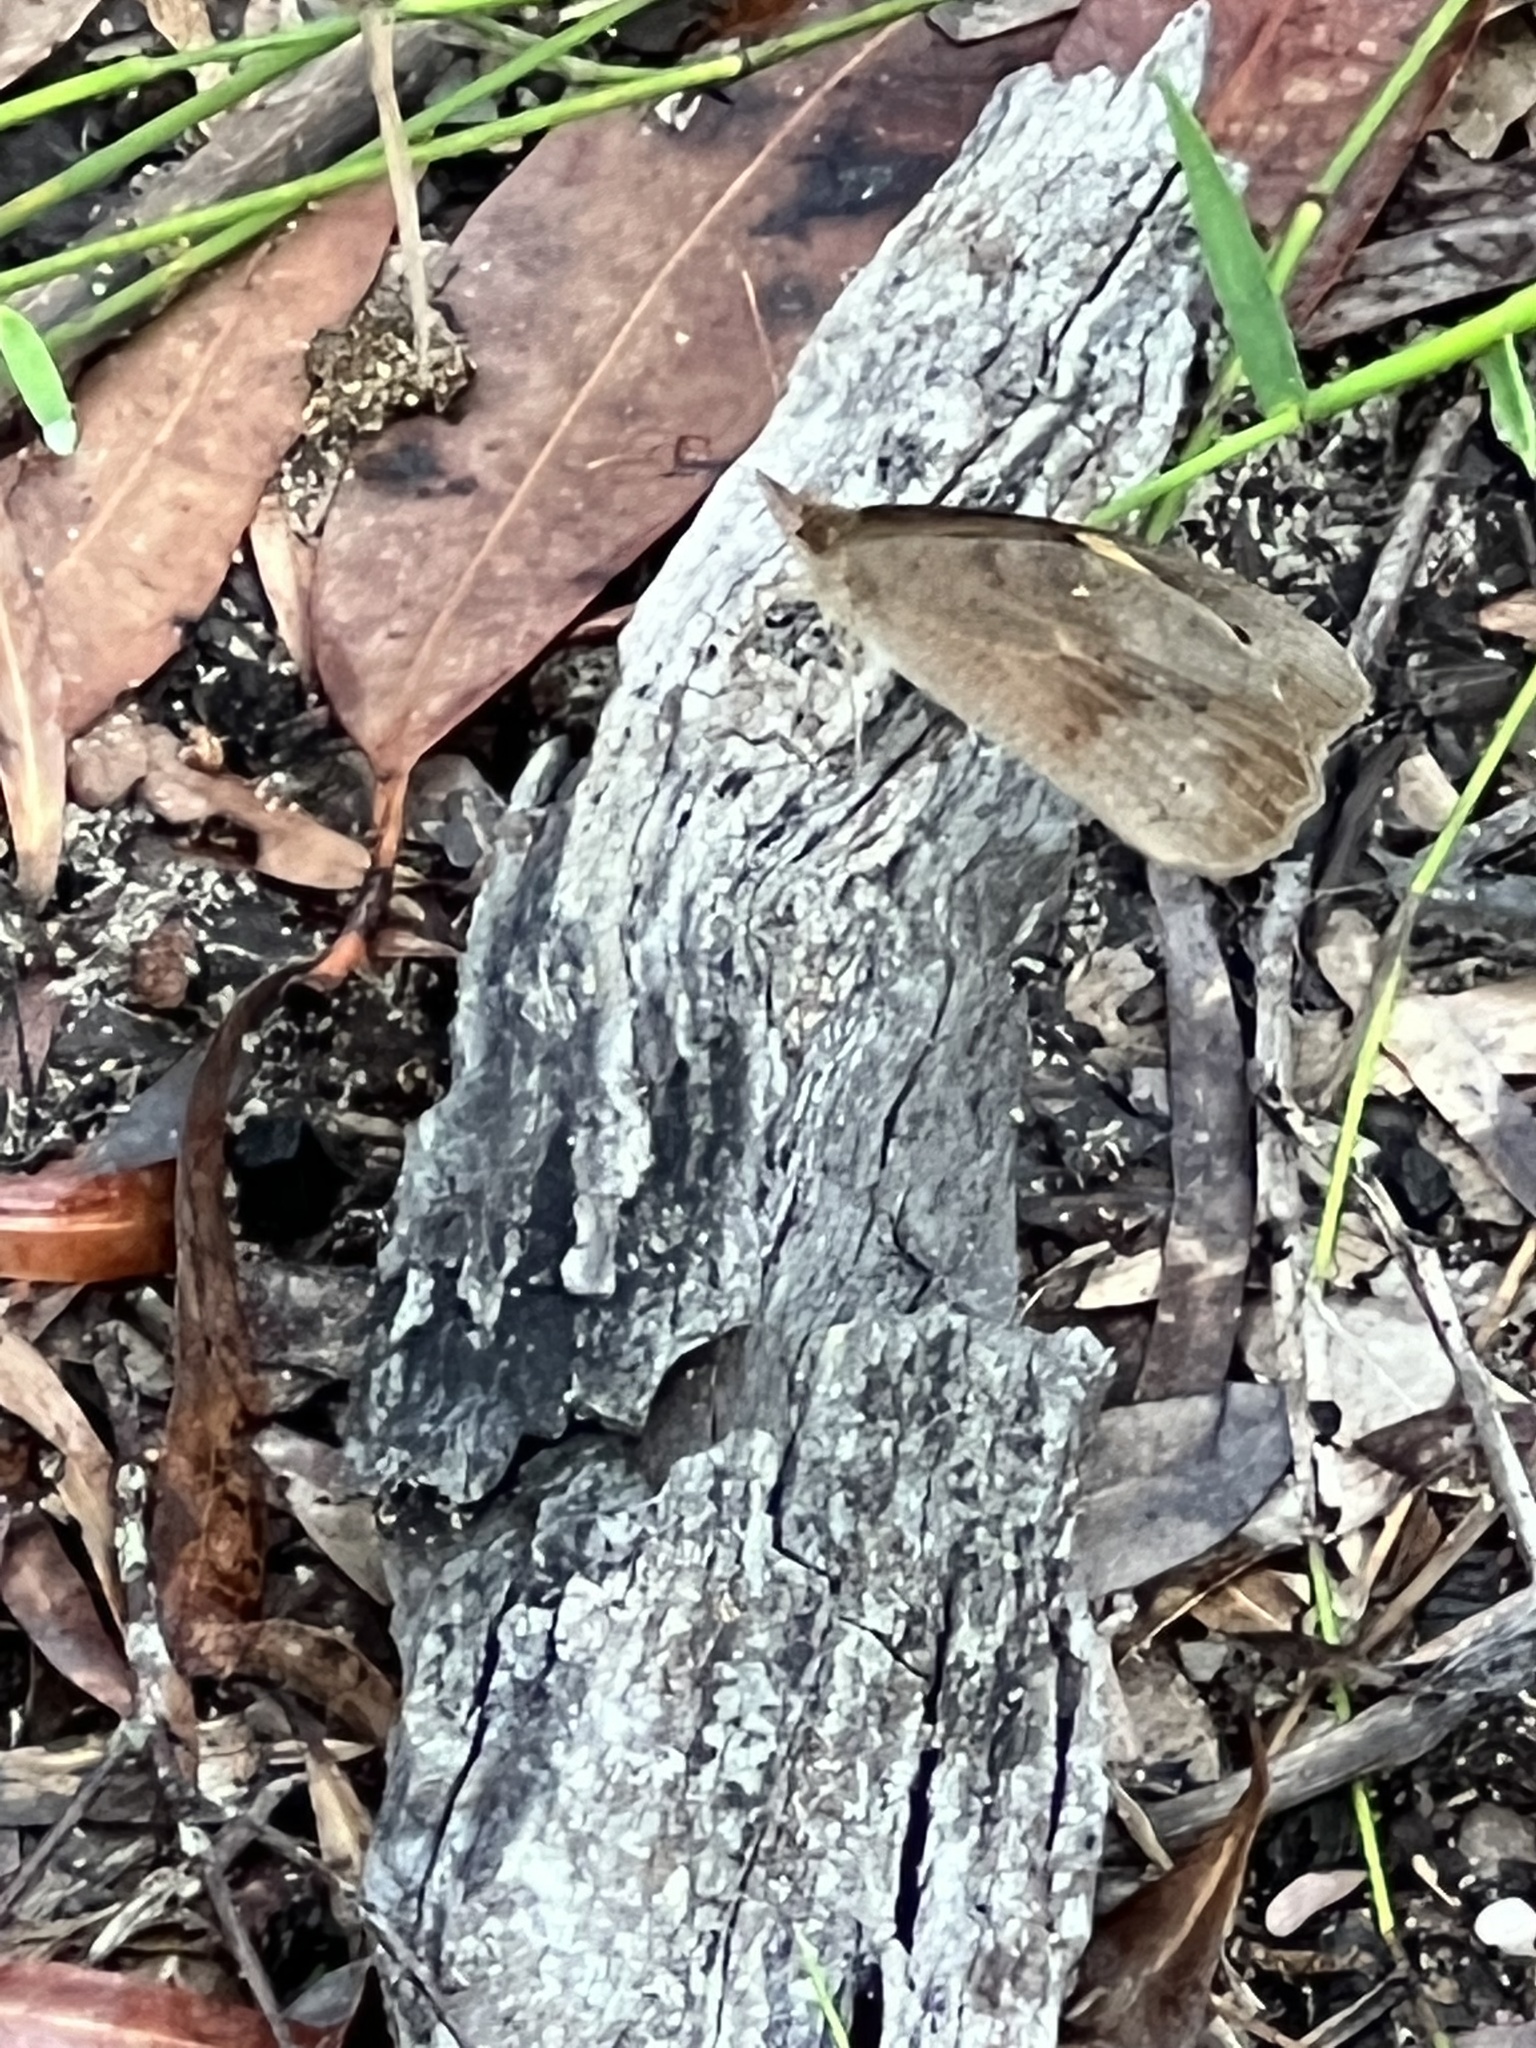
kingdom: Animalia
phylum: Arthropoda
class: Insecta
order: Lepidoptera
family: Nymphalidae
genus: Heteronympha
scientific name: Heteronympha merope
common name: Common brown
